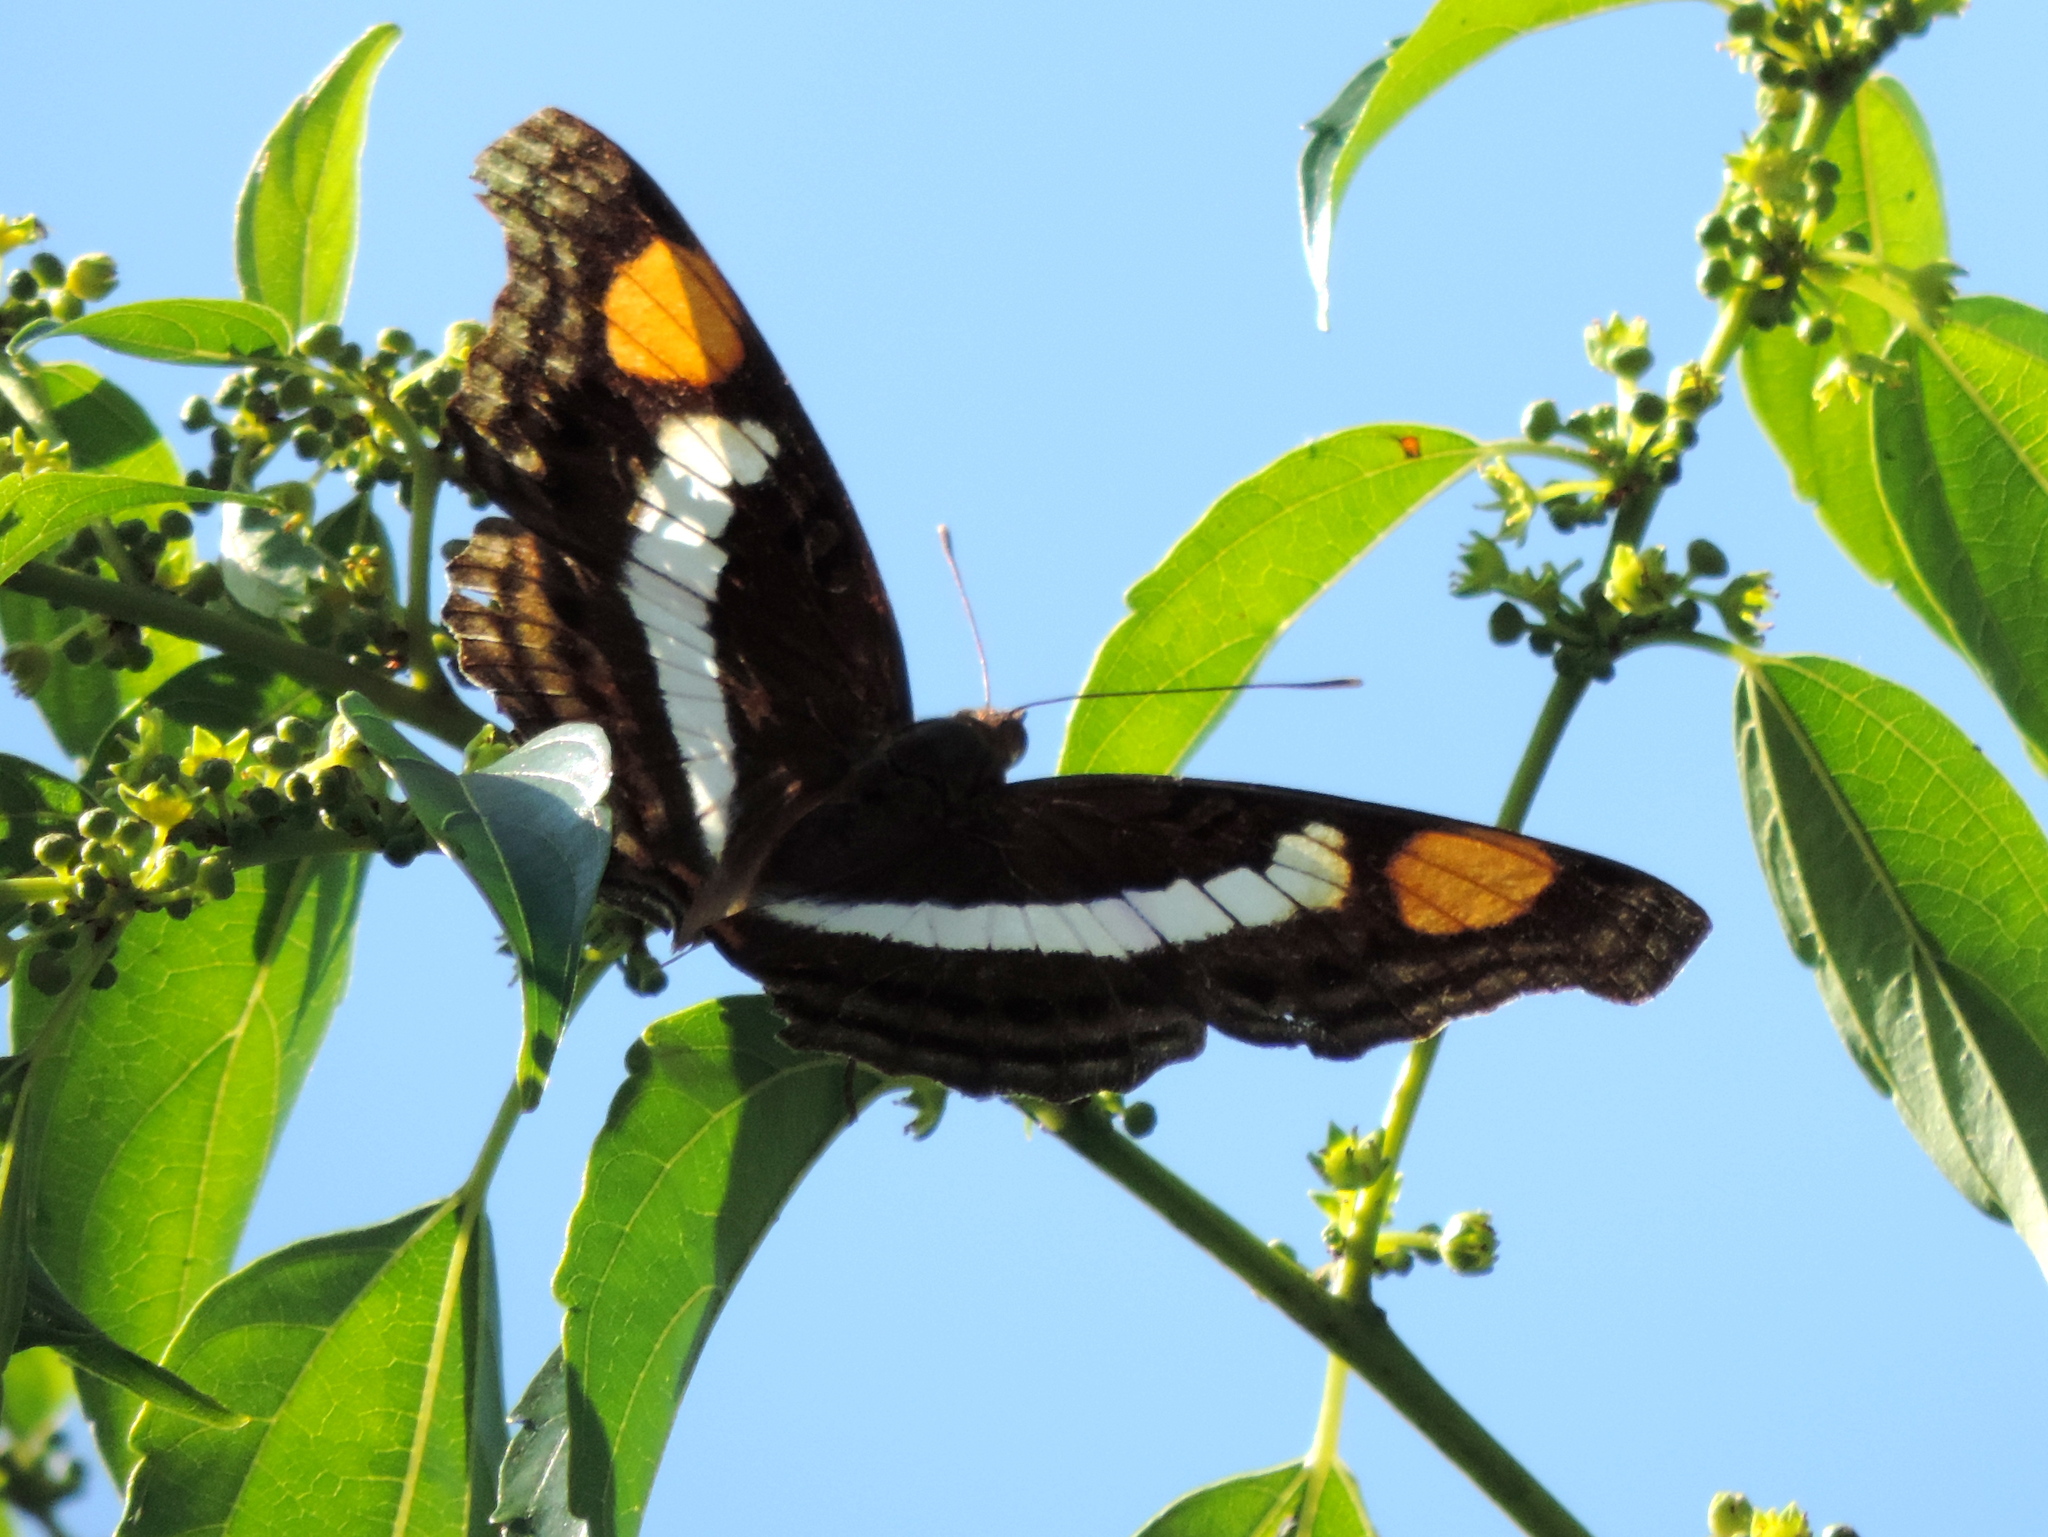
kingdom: Animalia
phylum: Arthropoda
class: Insecta
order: Lepidoptera
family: Nymphalidae
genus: Doxocopa
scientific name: Doxocopa laure
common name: Silver emperor
